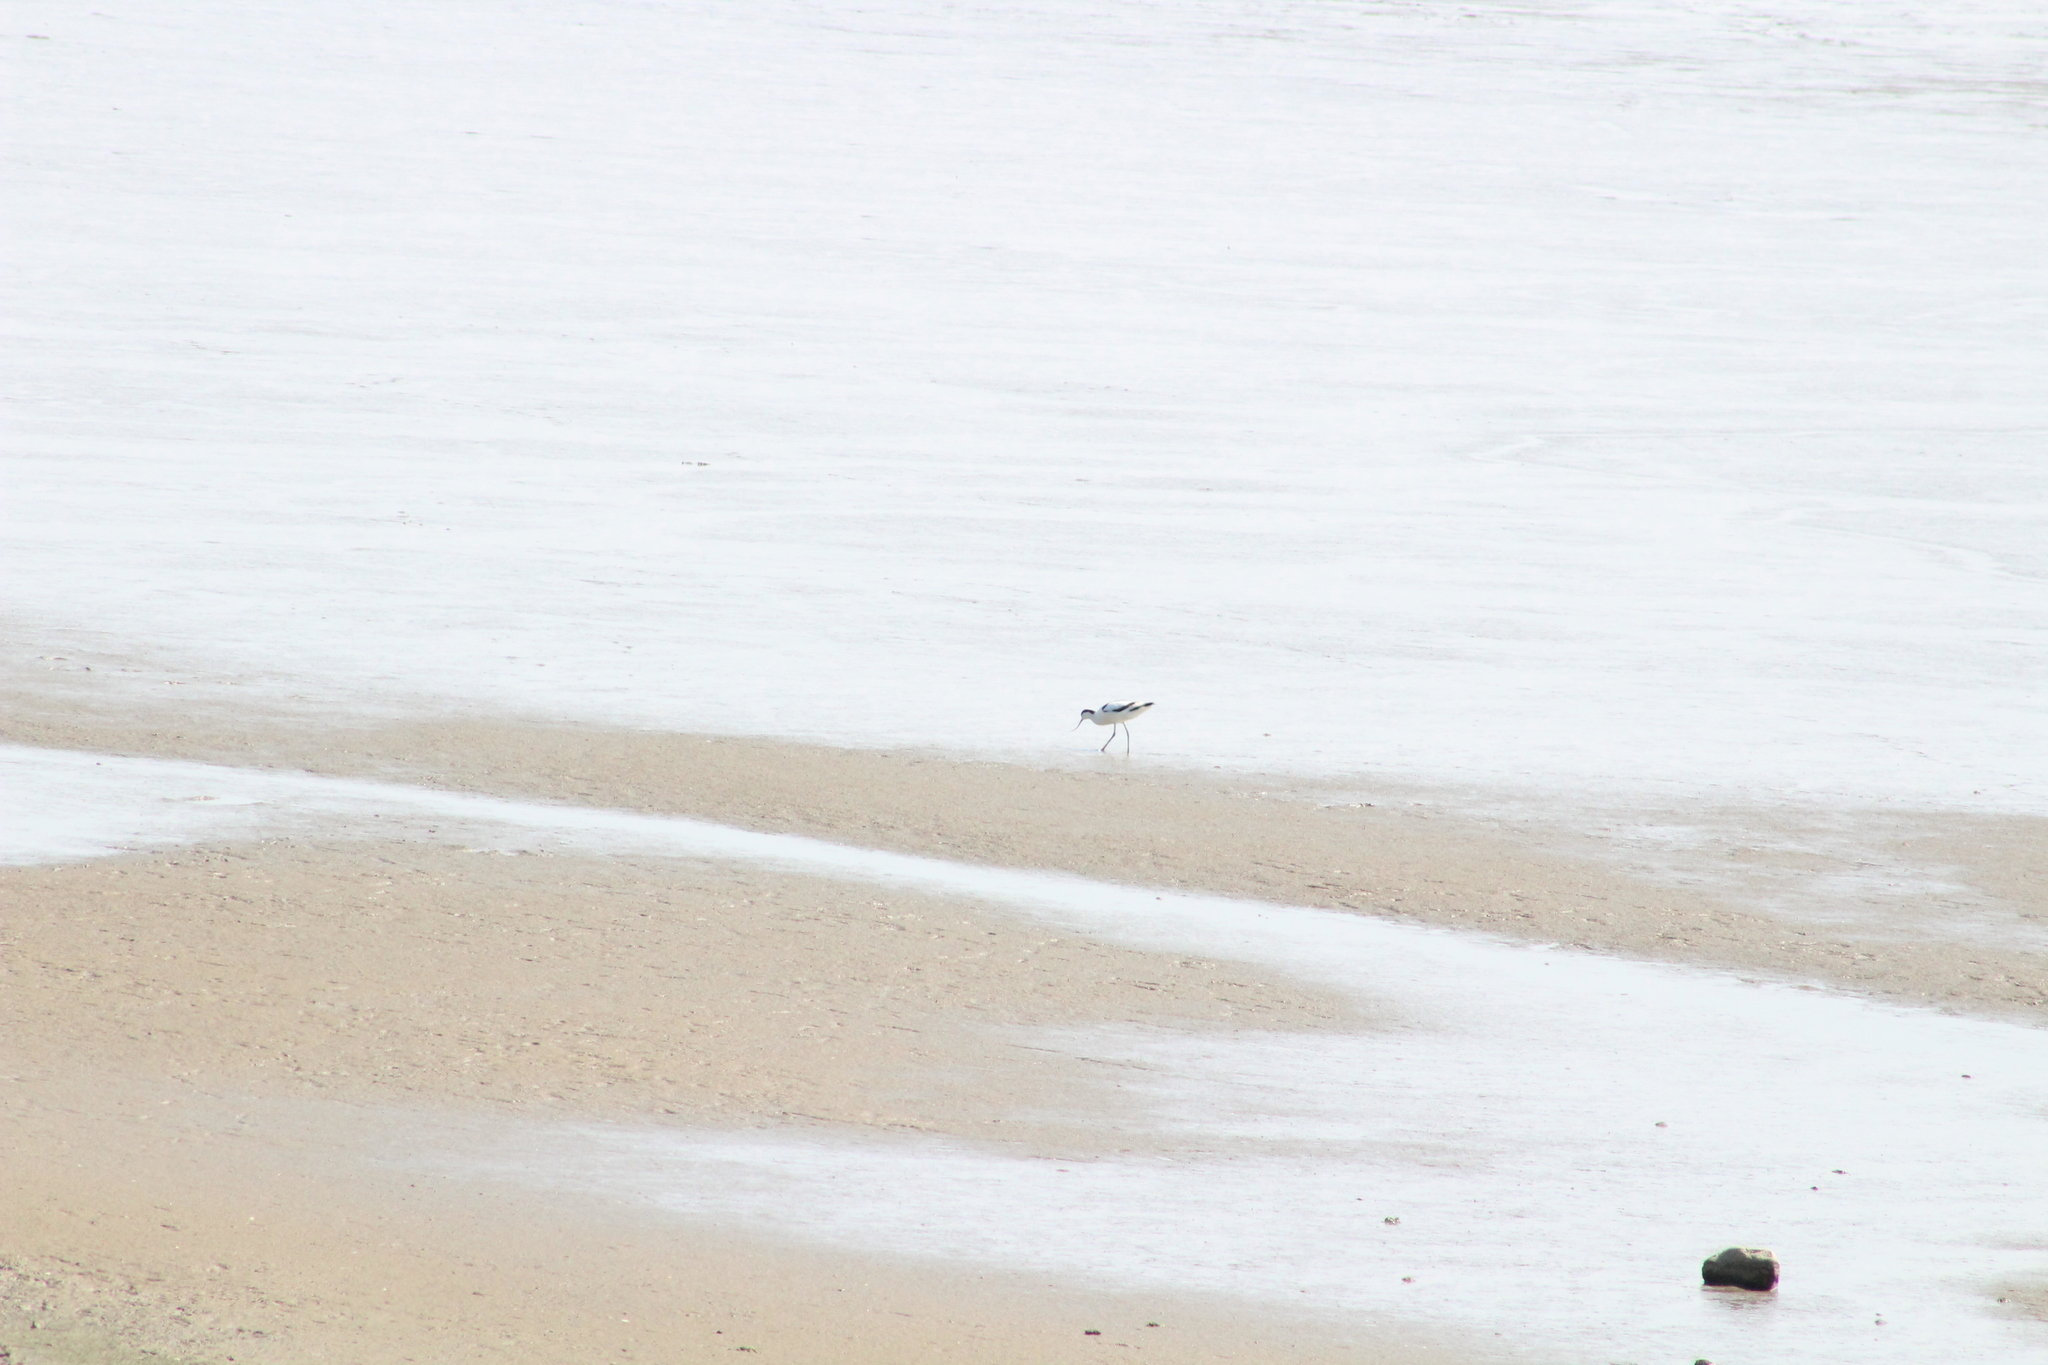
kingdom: Animalia
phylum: Chordata
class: Aves
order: Charadriiformes
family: Recurvirostridae
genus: Recurvirostra
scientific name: Recurvirostra avosetta
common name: Pied avocet
